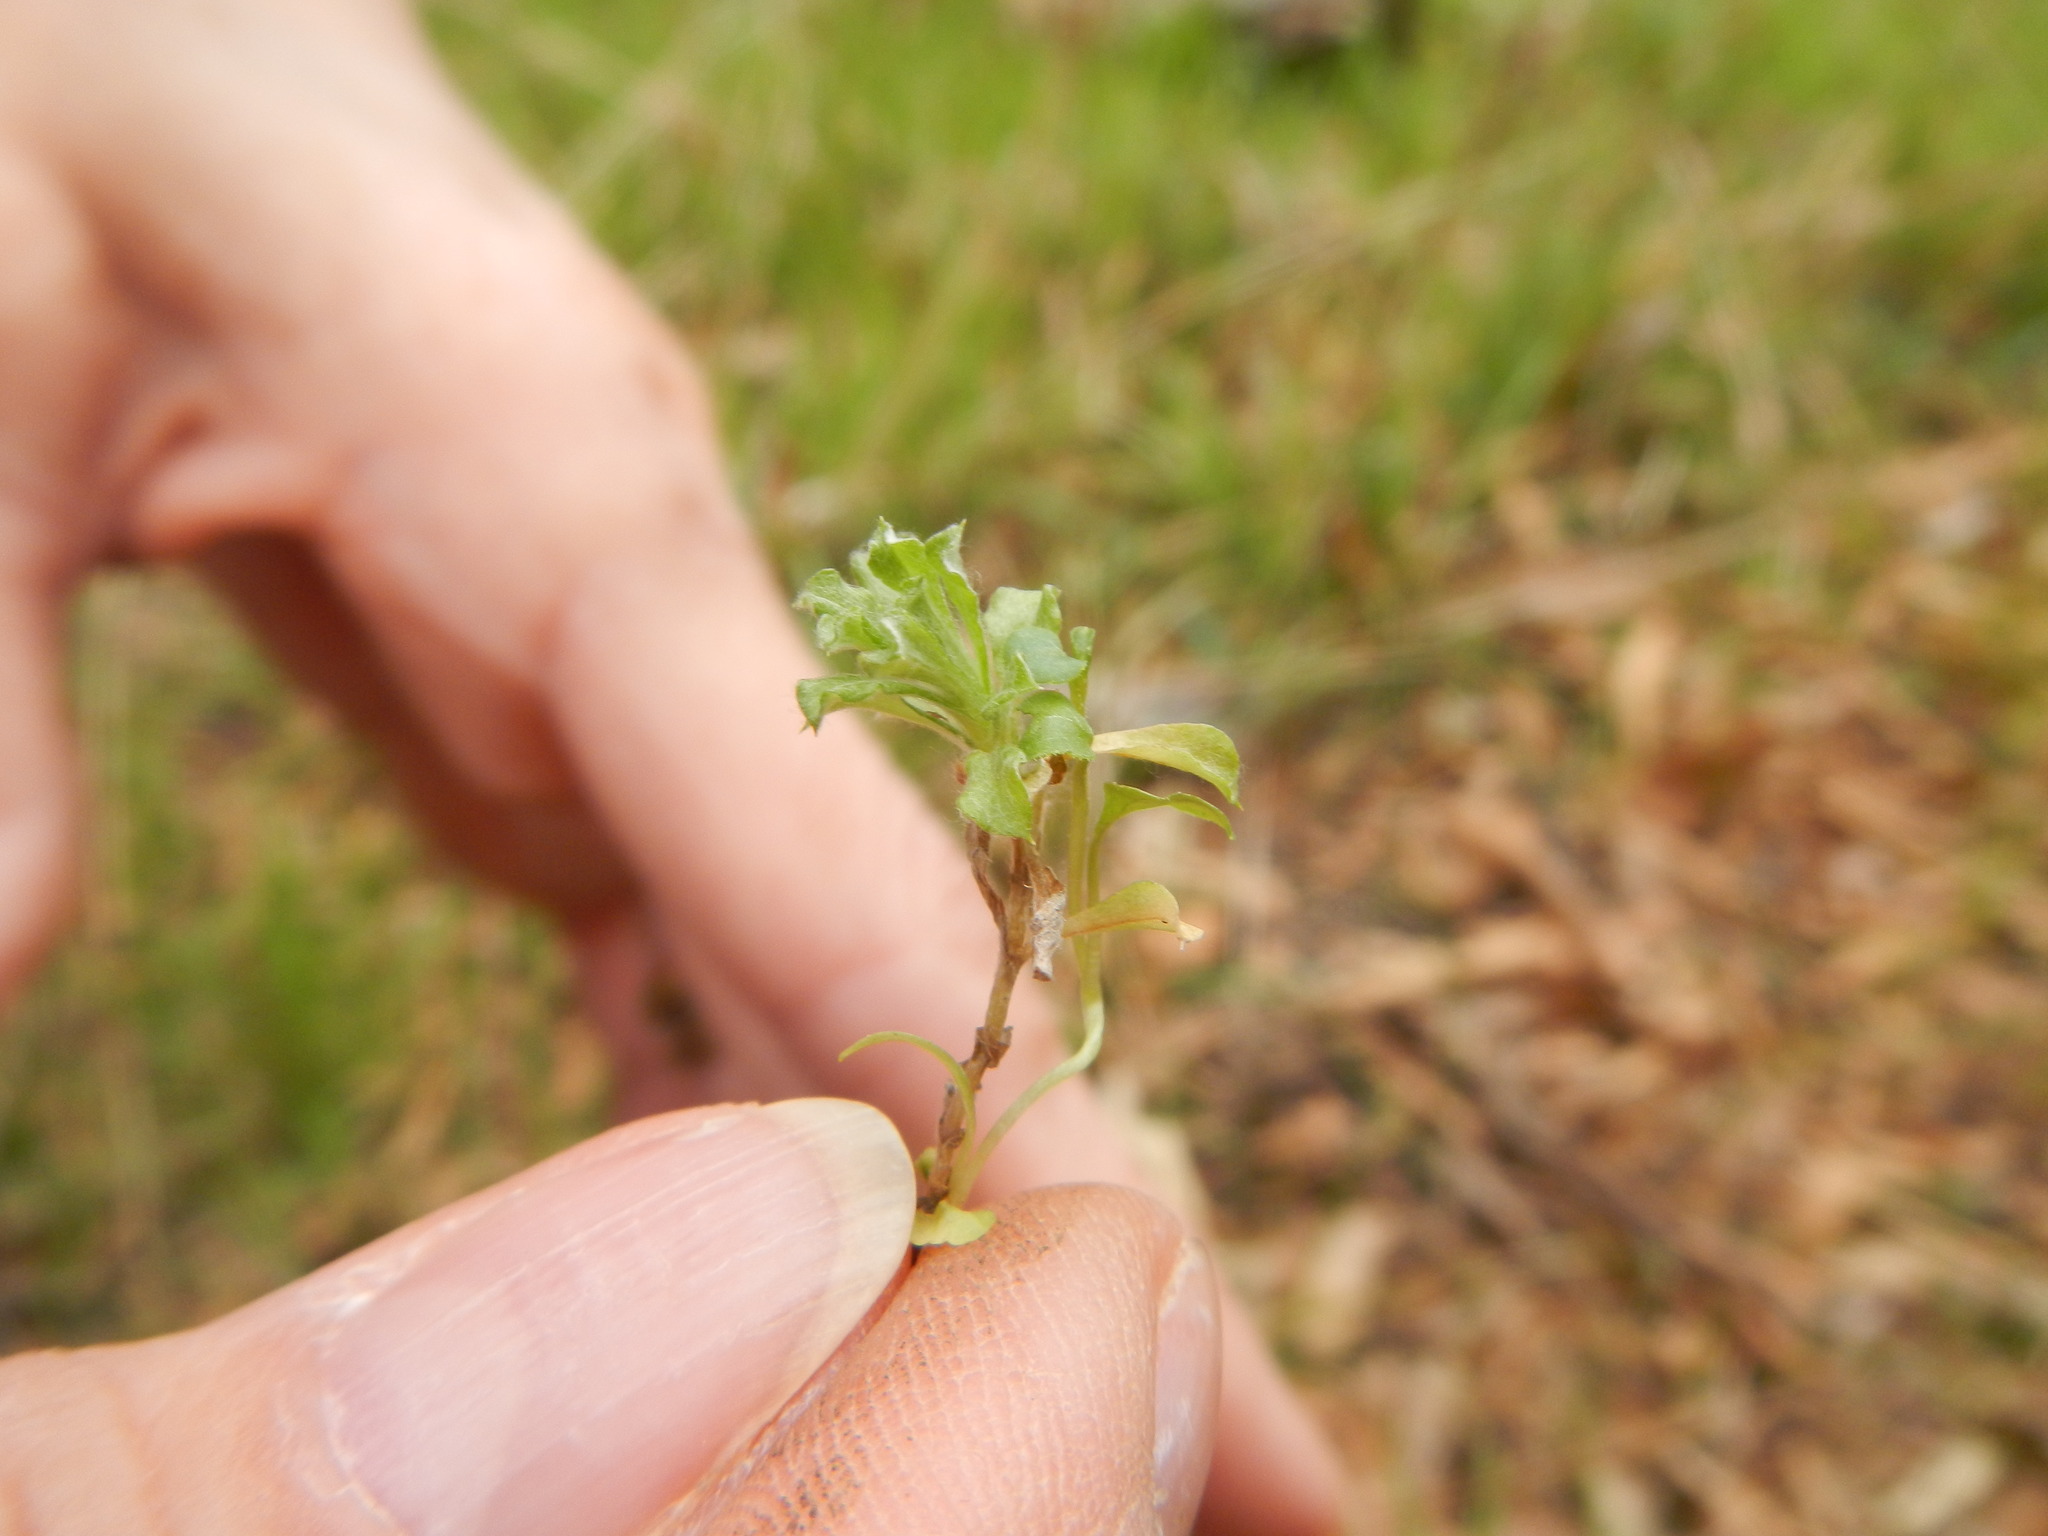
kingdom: Plantae
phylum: Tracheophyta
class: Magnoliopsida
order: Asterales
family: Asteraceae
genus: Facelis
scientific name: Facelis retusa
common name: Annual trampweed
